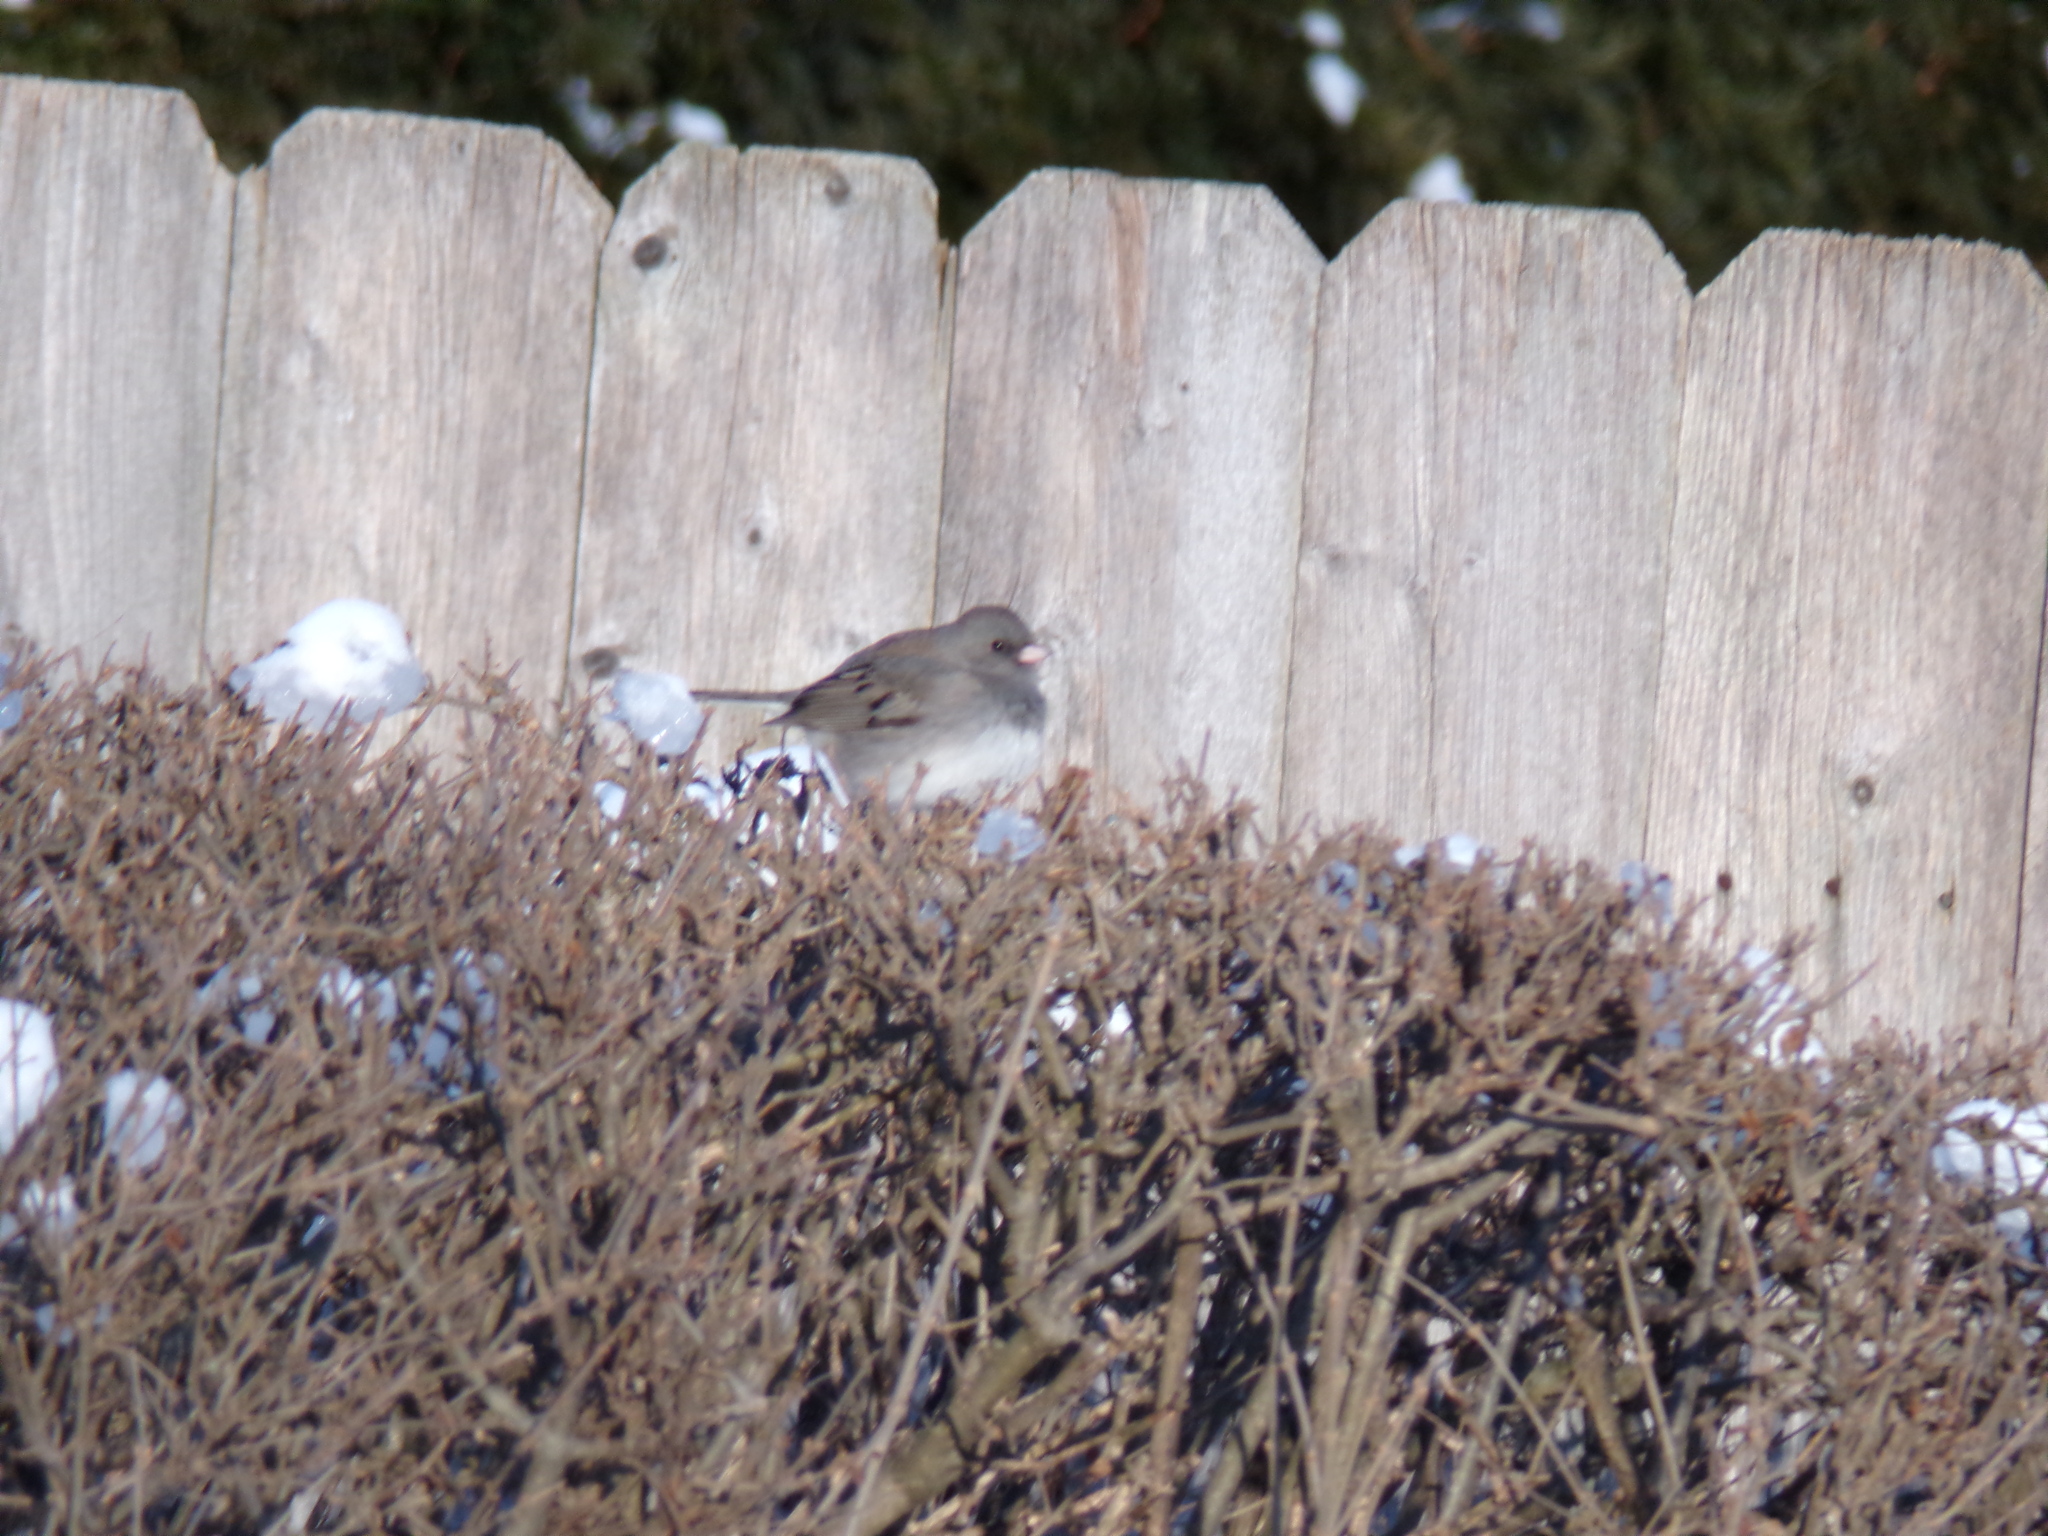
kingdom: Animalia
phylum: Chordata
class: Aves
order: Passeriformes
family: Passerellidae
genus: Junco
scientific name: Junco hyemalis
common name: Dark-eyed junco
